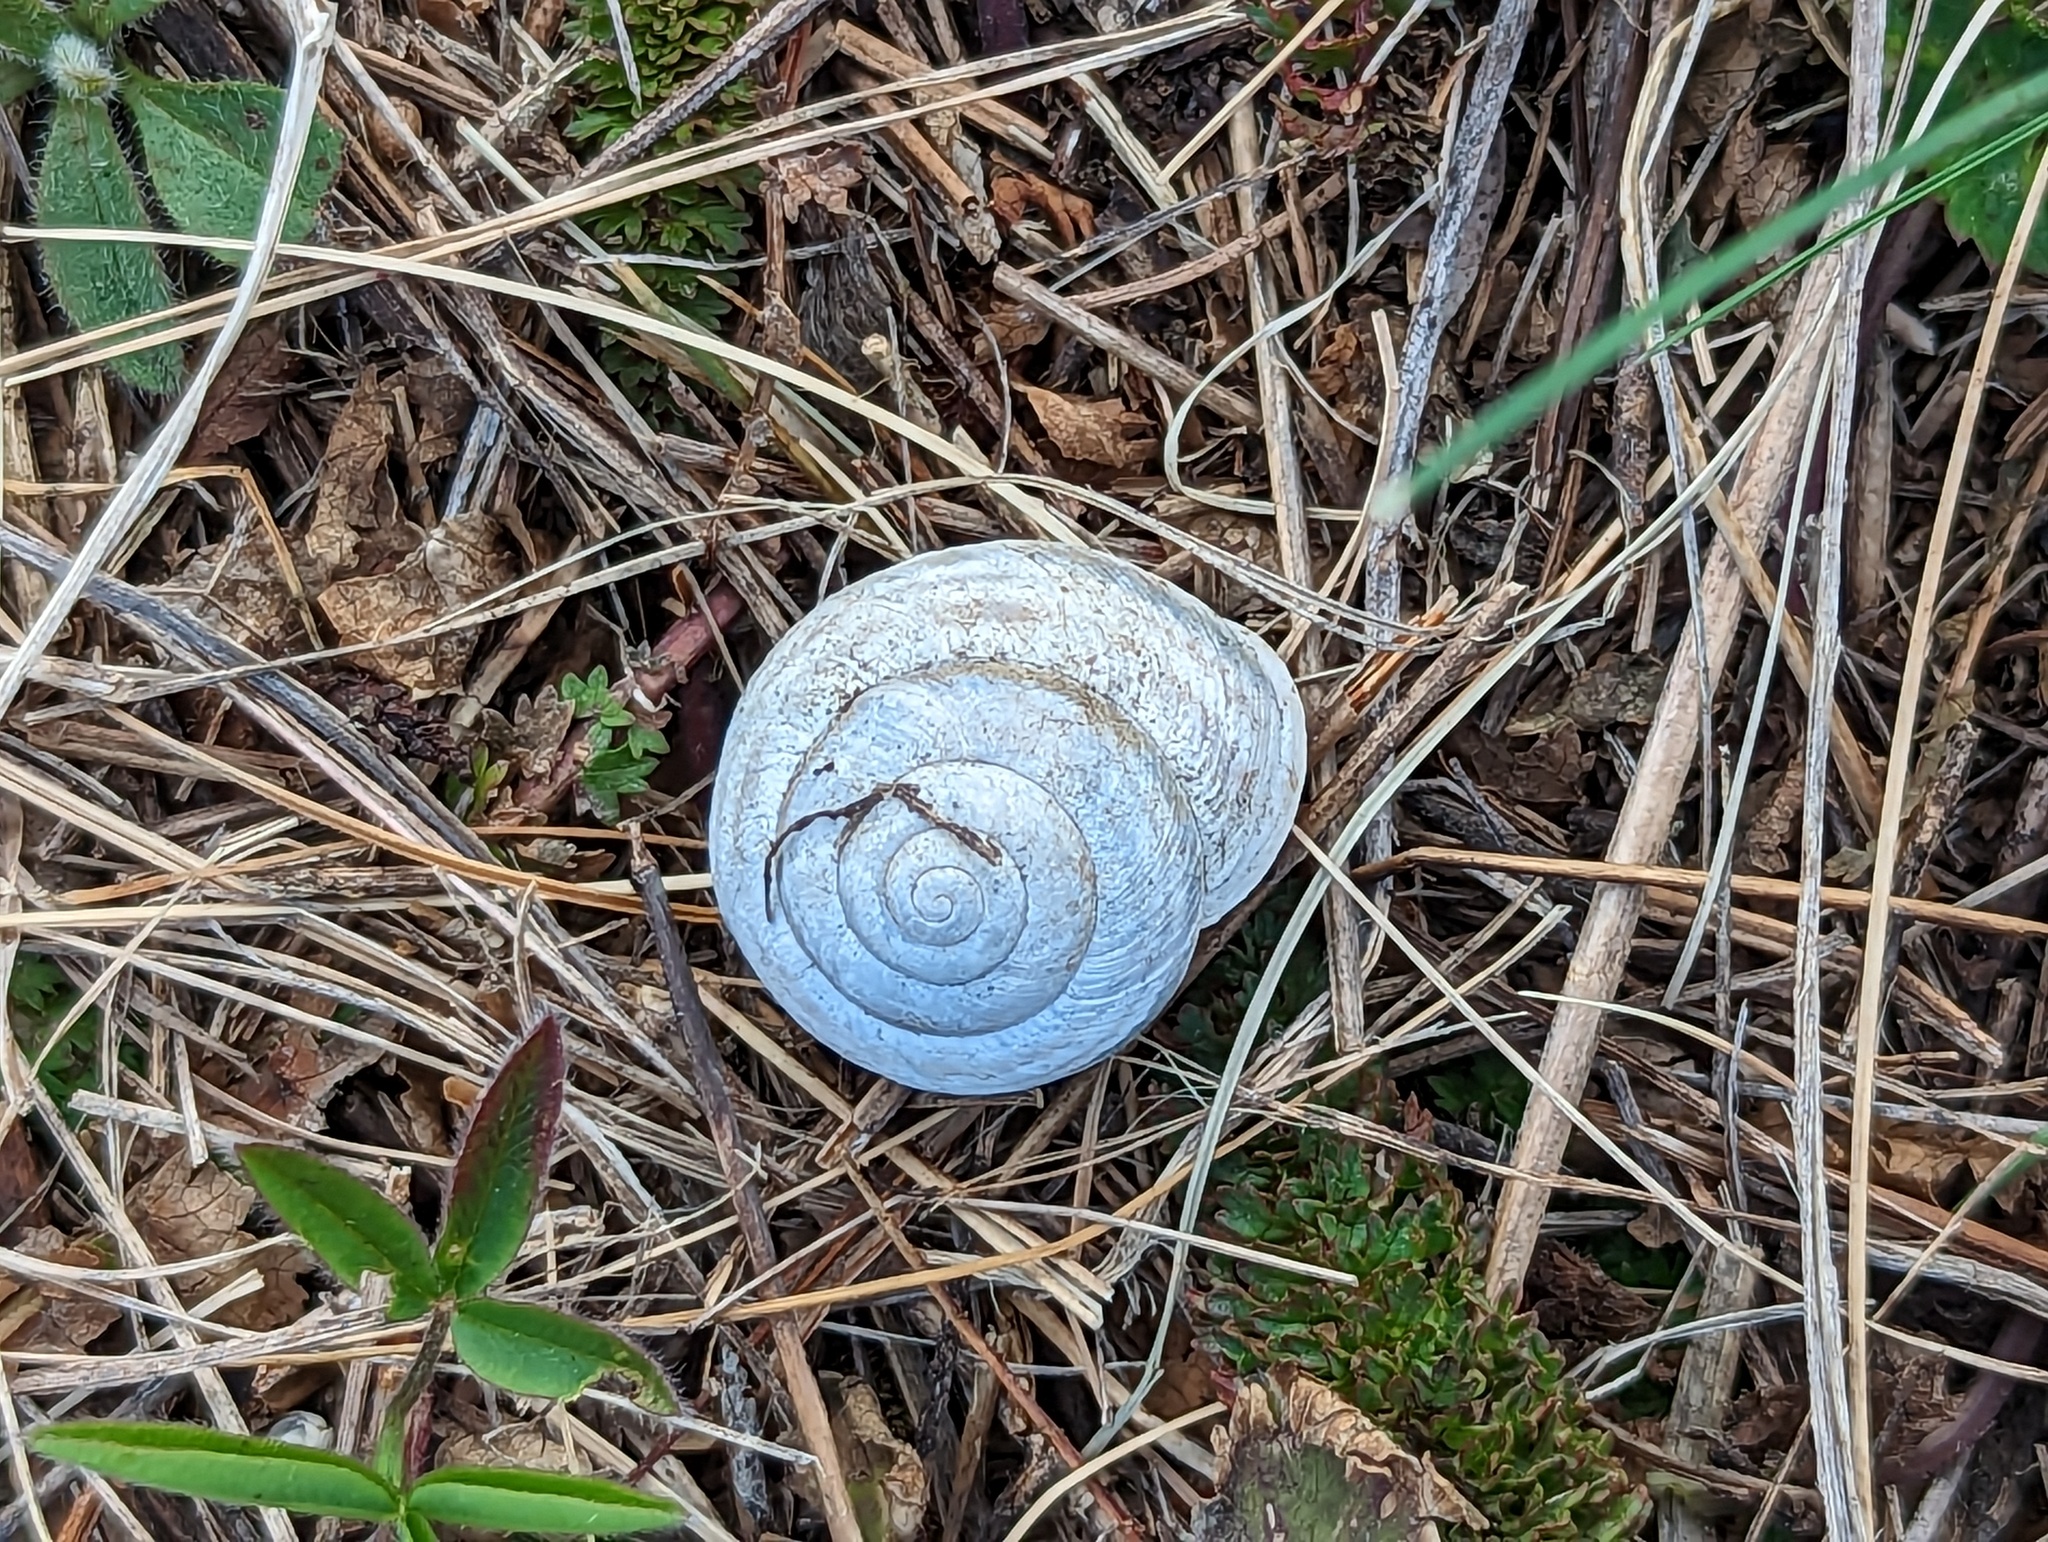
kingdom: Animalia
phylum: Mollusca
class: Gastropoda
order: Stylommatophora
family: Helicidae
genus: Caucasotachea
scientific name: Caucasotachea vindobonensis
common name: European helicid land snail
